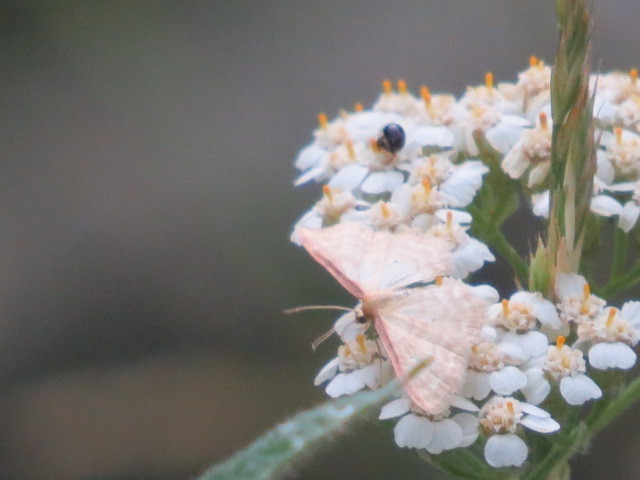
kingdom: Animalia
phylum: Arthropoda
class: Insecta
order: Lepidoptera
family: Geometridae
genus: Idaea
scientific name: Idaea humiliata
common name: Isle of wight wave
